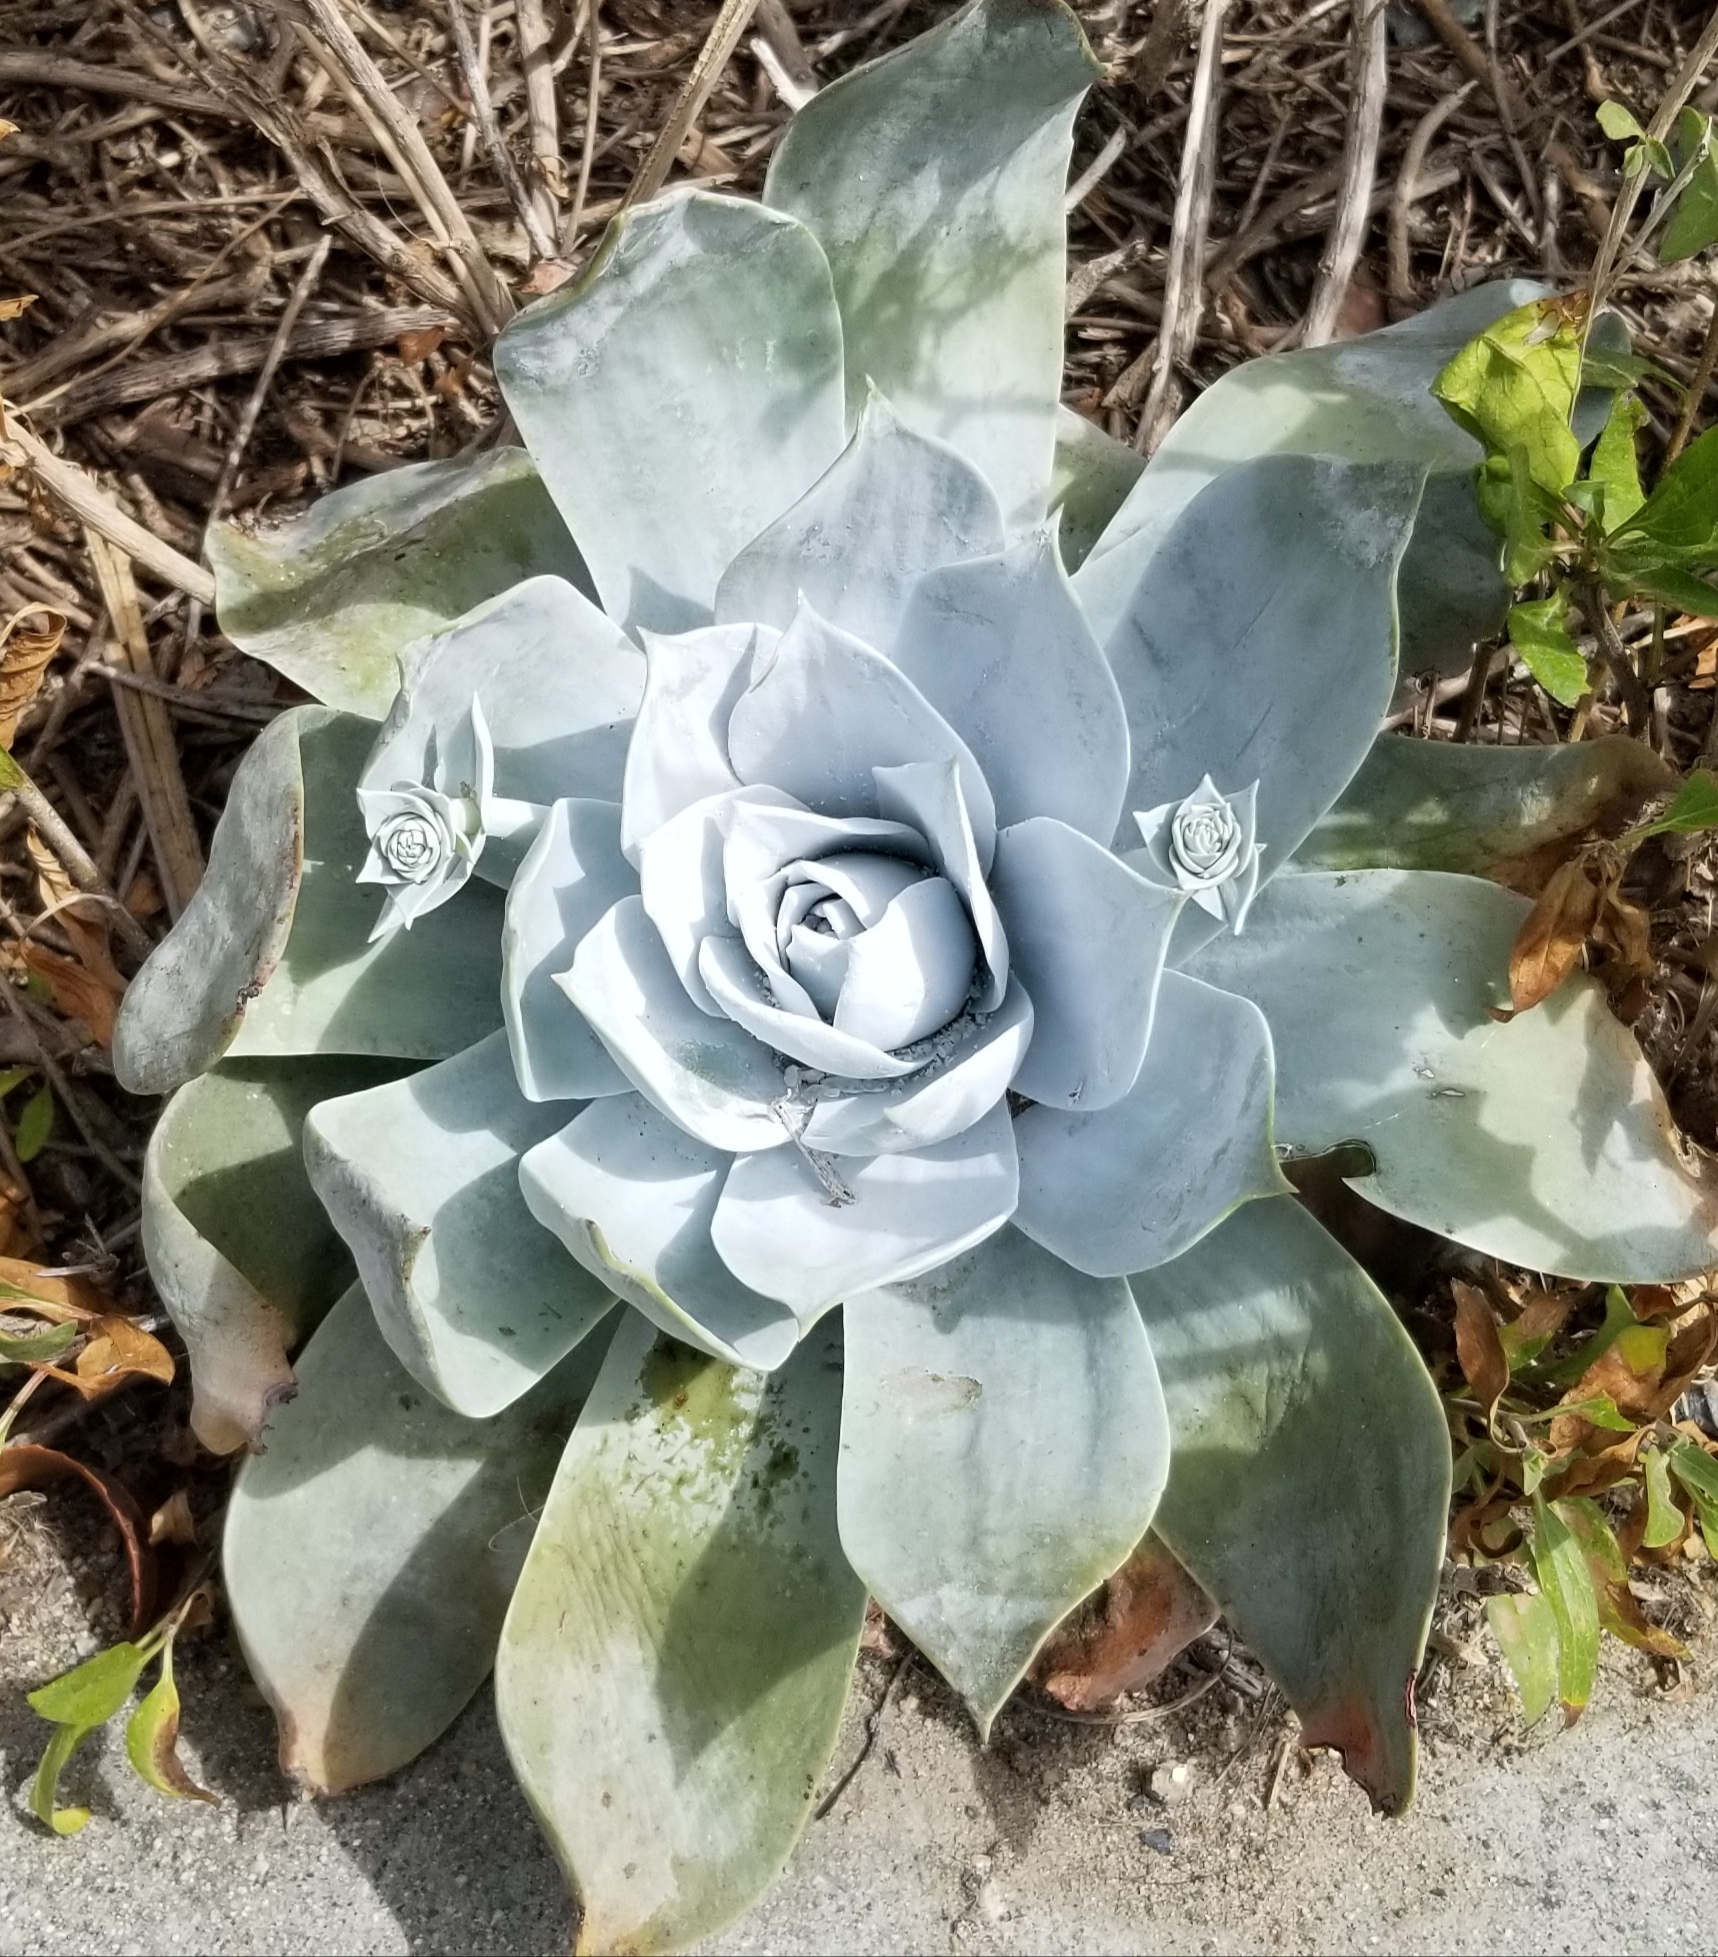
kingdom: Plantae
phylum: Tracheophyta
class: Magnoliopsida
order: Saxifragales
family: Crassulaceae
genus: Dudleya
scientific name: Dudleya pulverulenta
